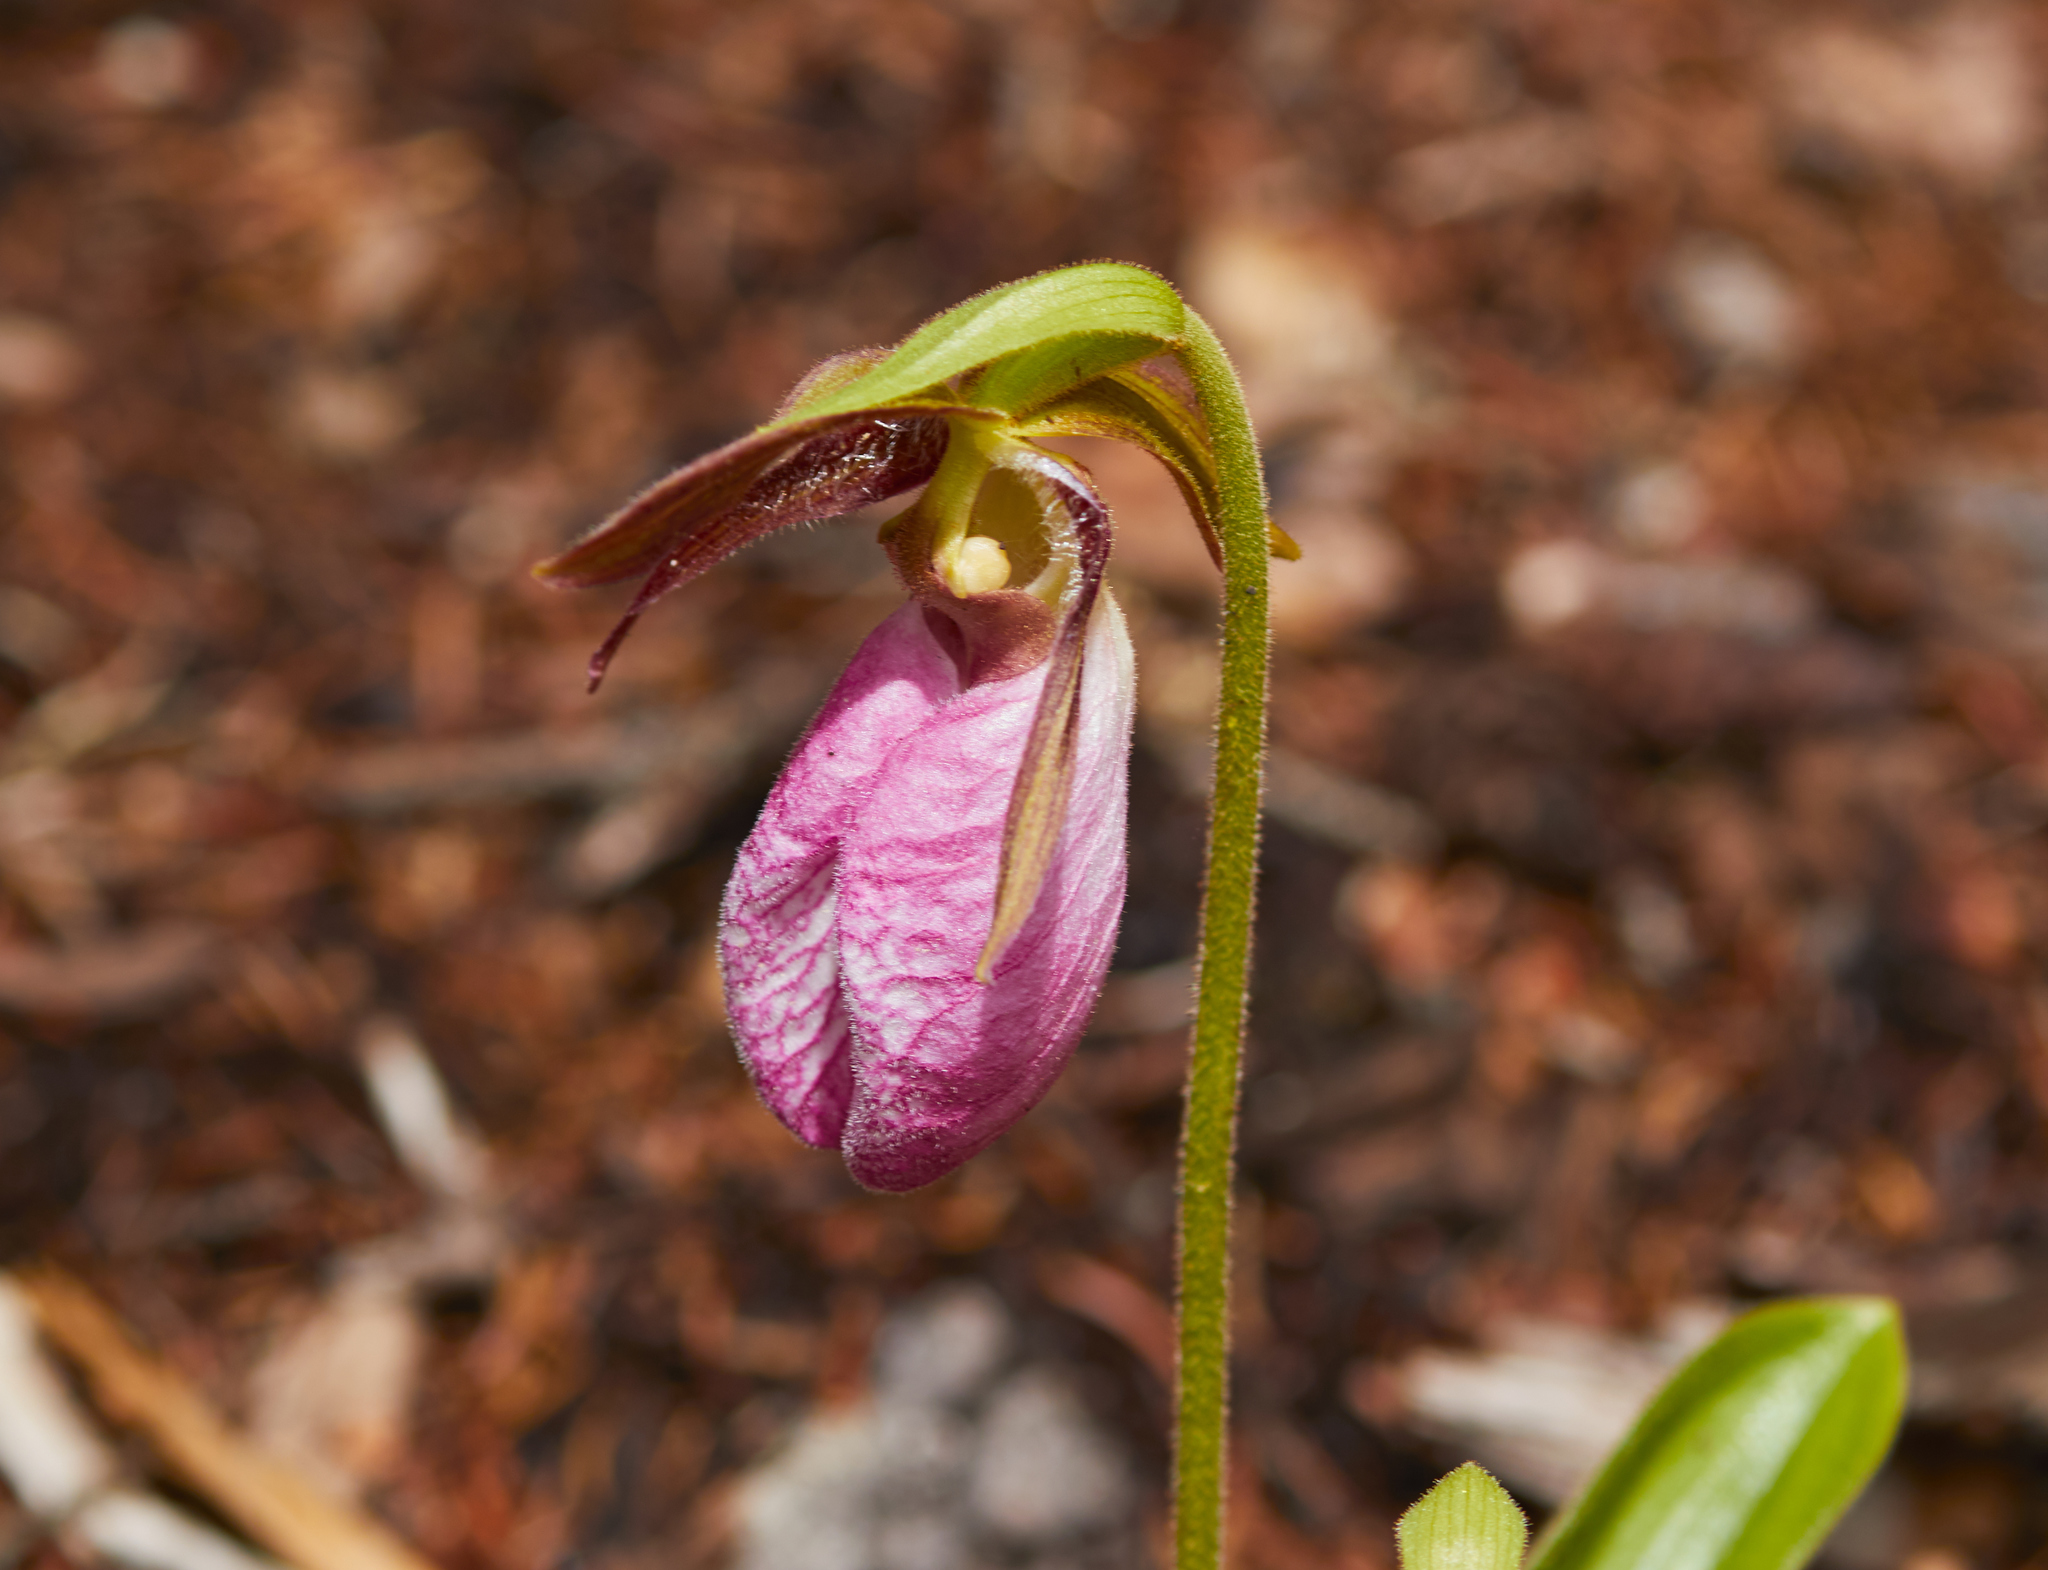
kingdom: Plantae
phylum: Tracheophyta
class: Liliopsida
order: Asparagales
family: Orchidaceae
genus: Cypripedium
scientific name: Cypripedium acaule
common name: Pink lady's-slipper
